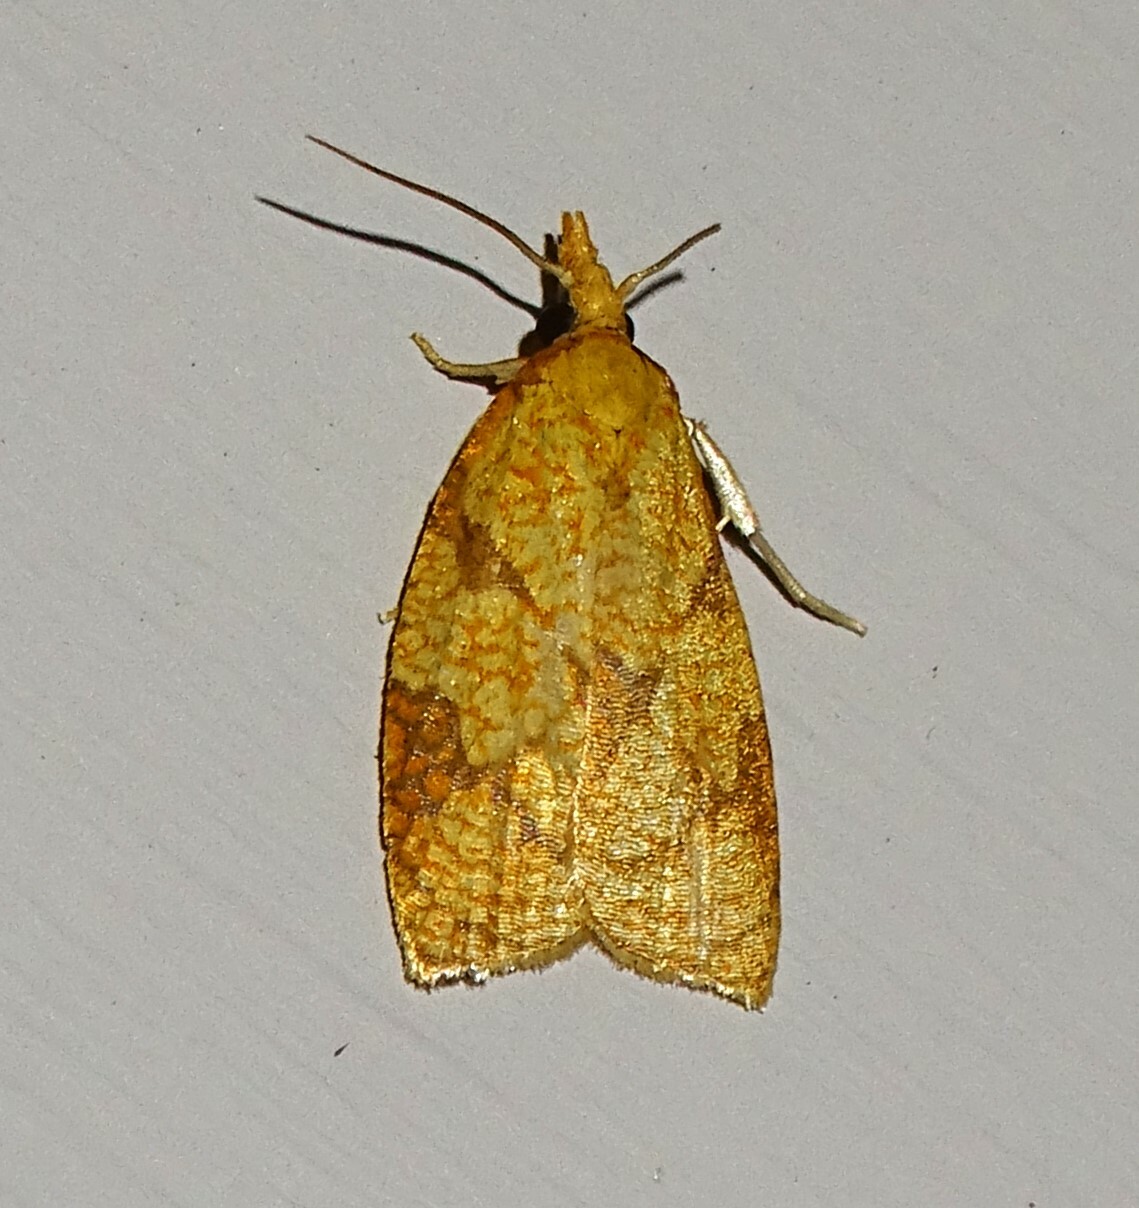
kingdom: Animalia
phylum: Arthropoda
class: Insecta
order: Lepidoptera
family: Tortricidae
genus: Cenopis
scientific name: Cenopis reticulatana
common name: Reticulated fruitworm moth
